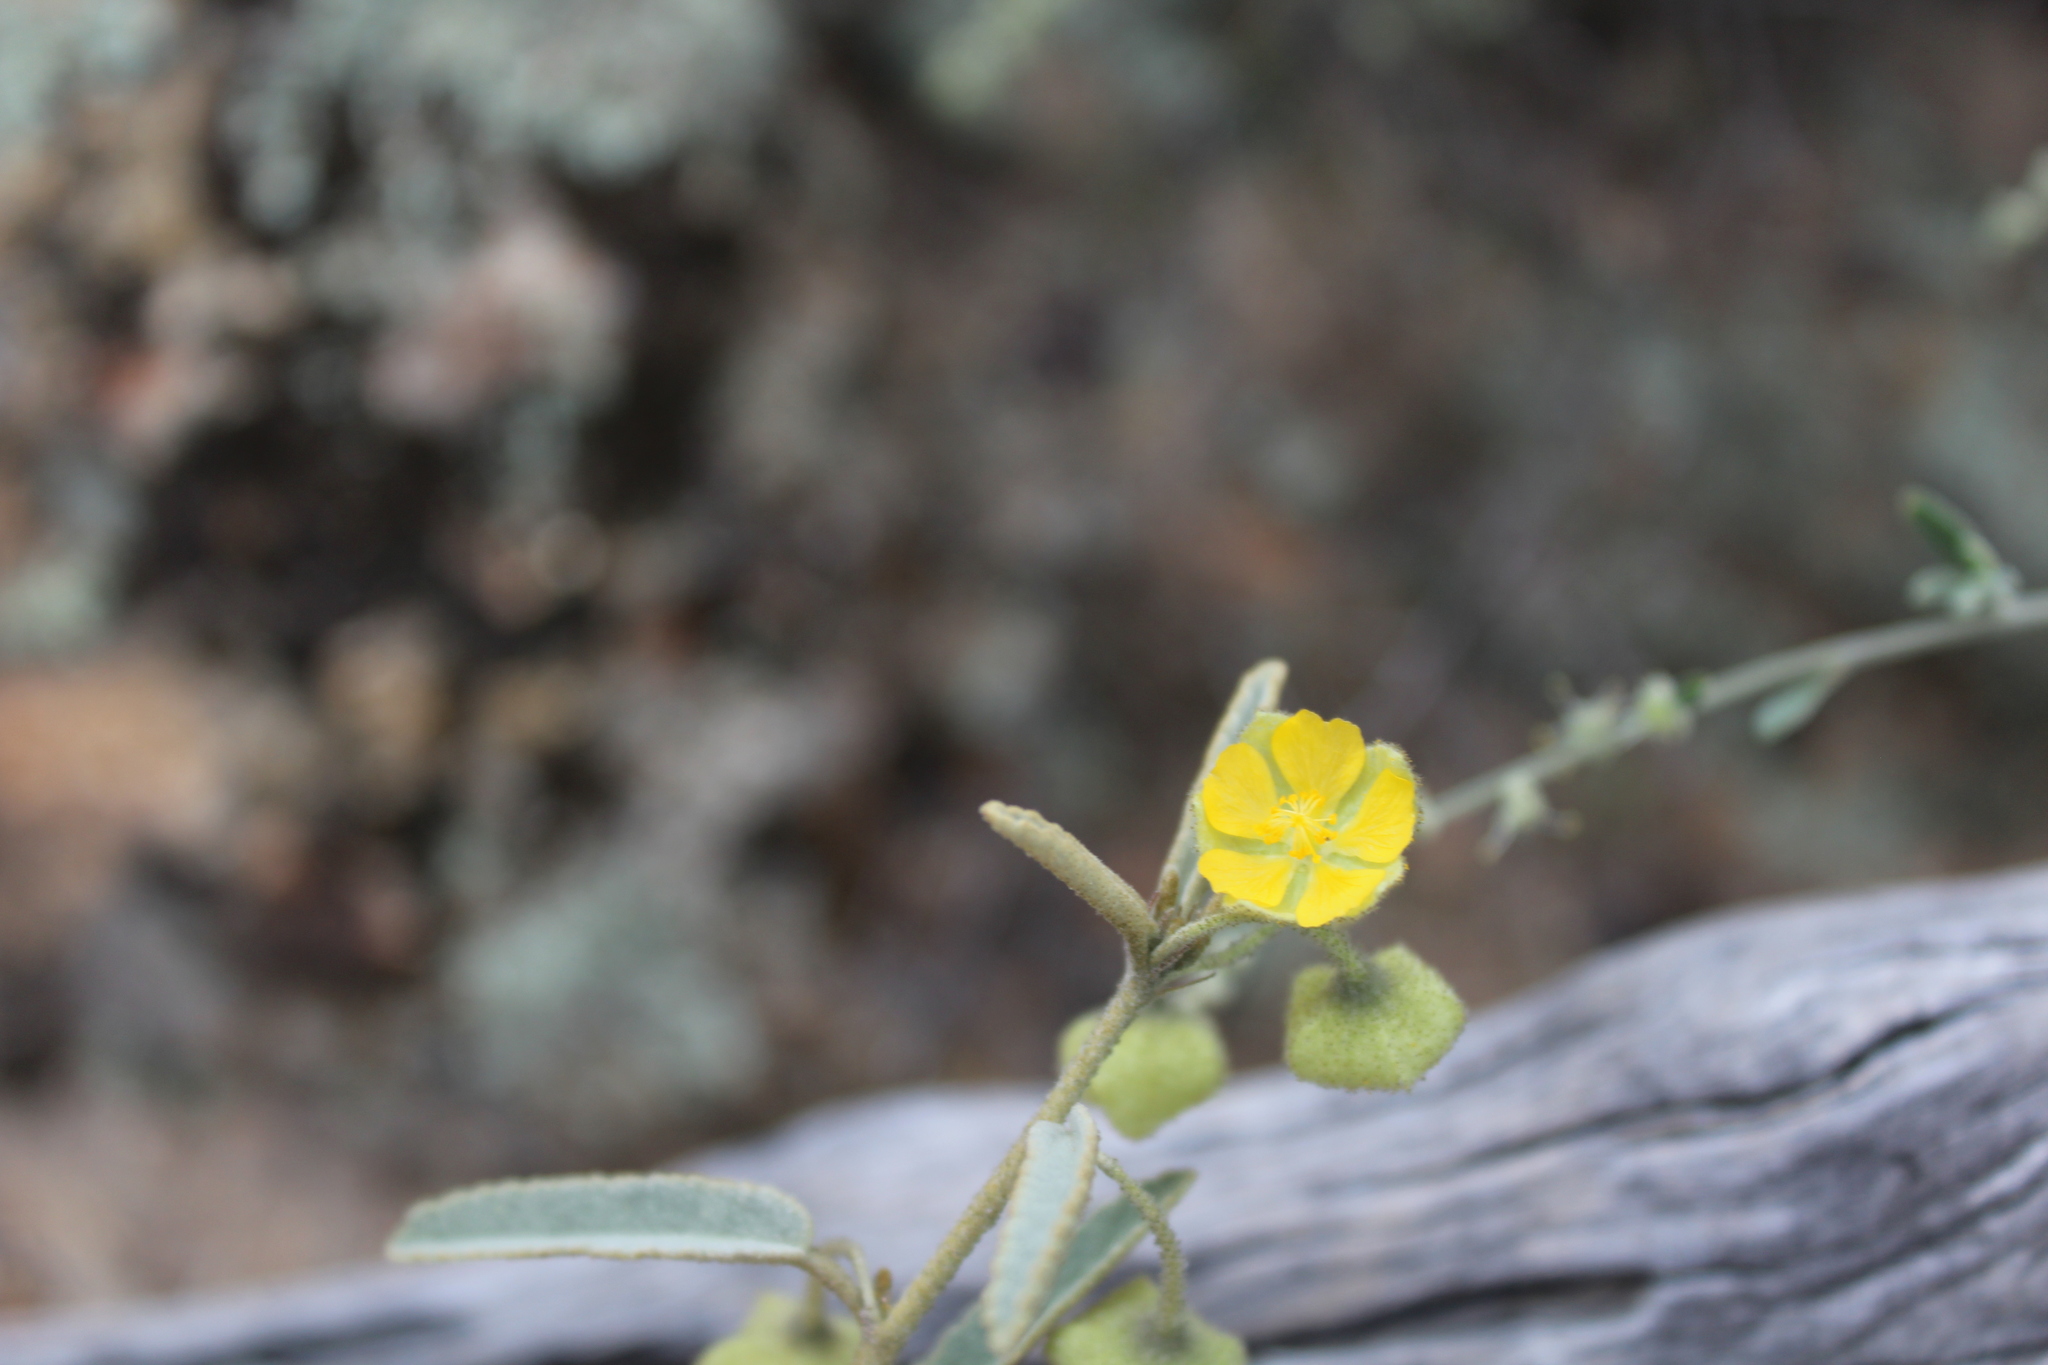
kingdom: Plantae
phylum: Tracheophyta
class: Magnoliopsida
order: Malvales
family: Malvaceae
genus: Sida
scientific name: Sida calyxhymenia
